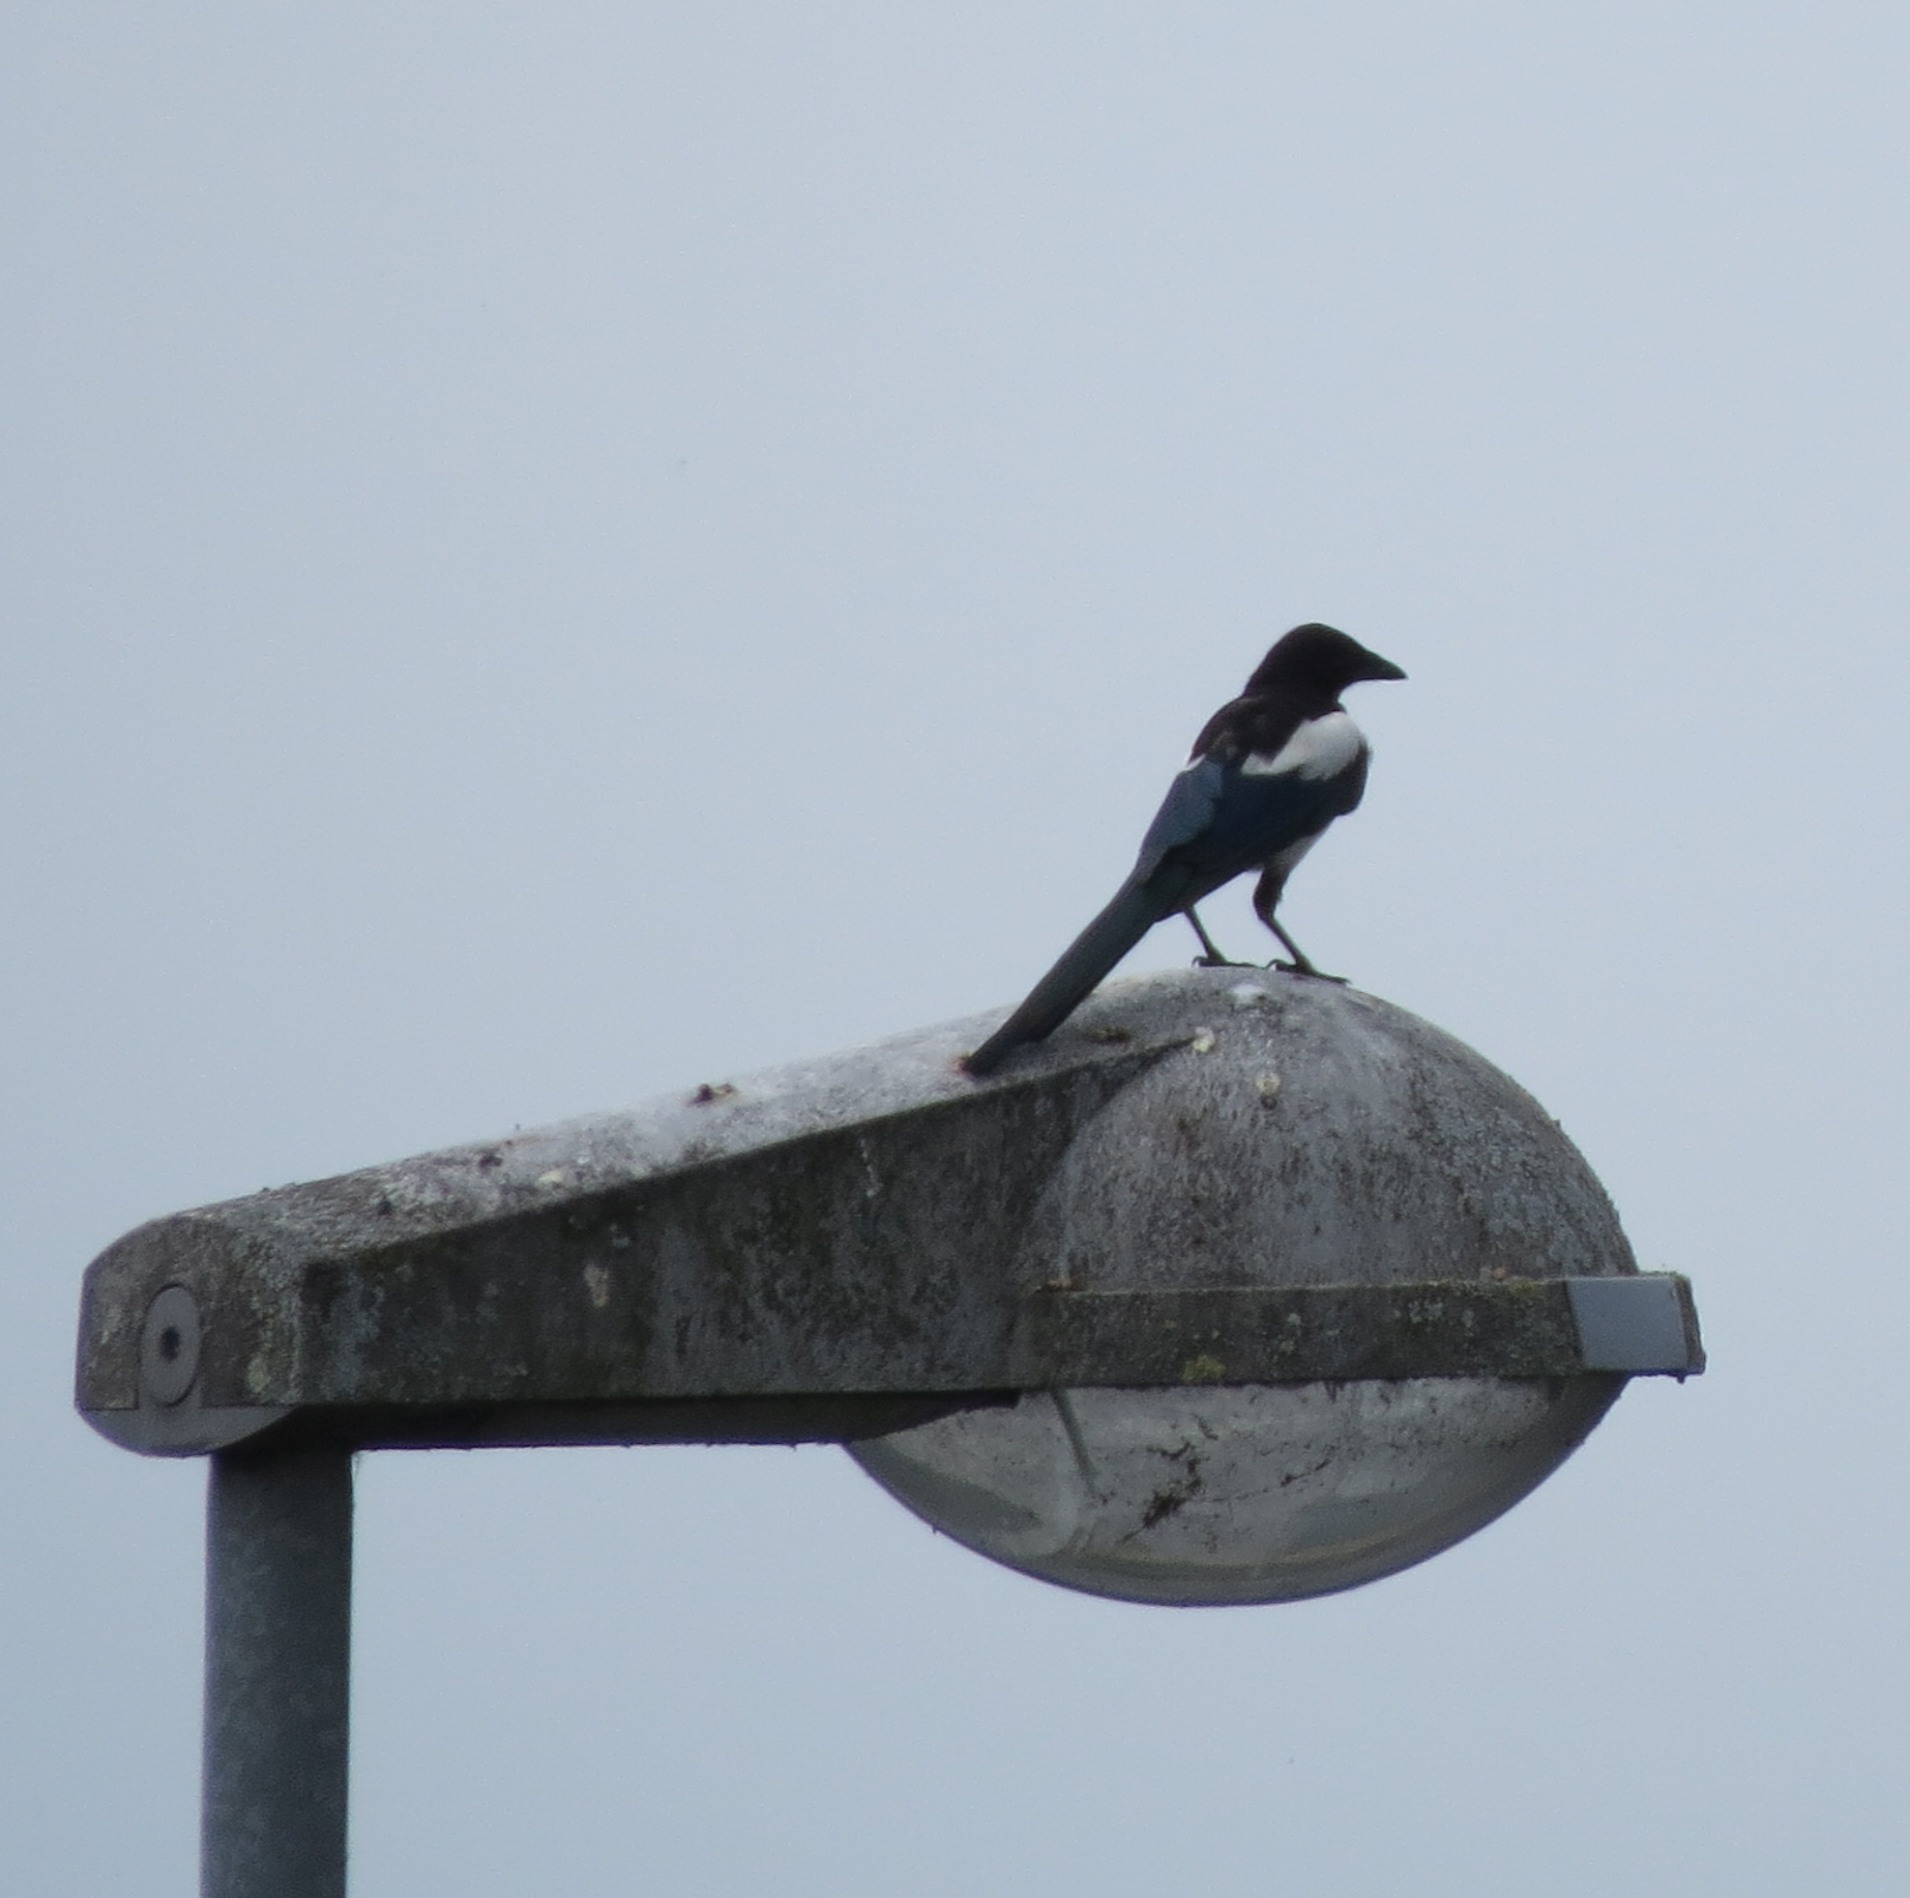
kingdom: Animalia
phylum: Chordata
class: Aves
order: Passeriformes
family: Corvidae
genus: Pica
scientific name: Pica pica
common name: Eurasian magpie
